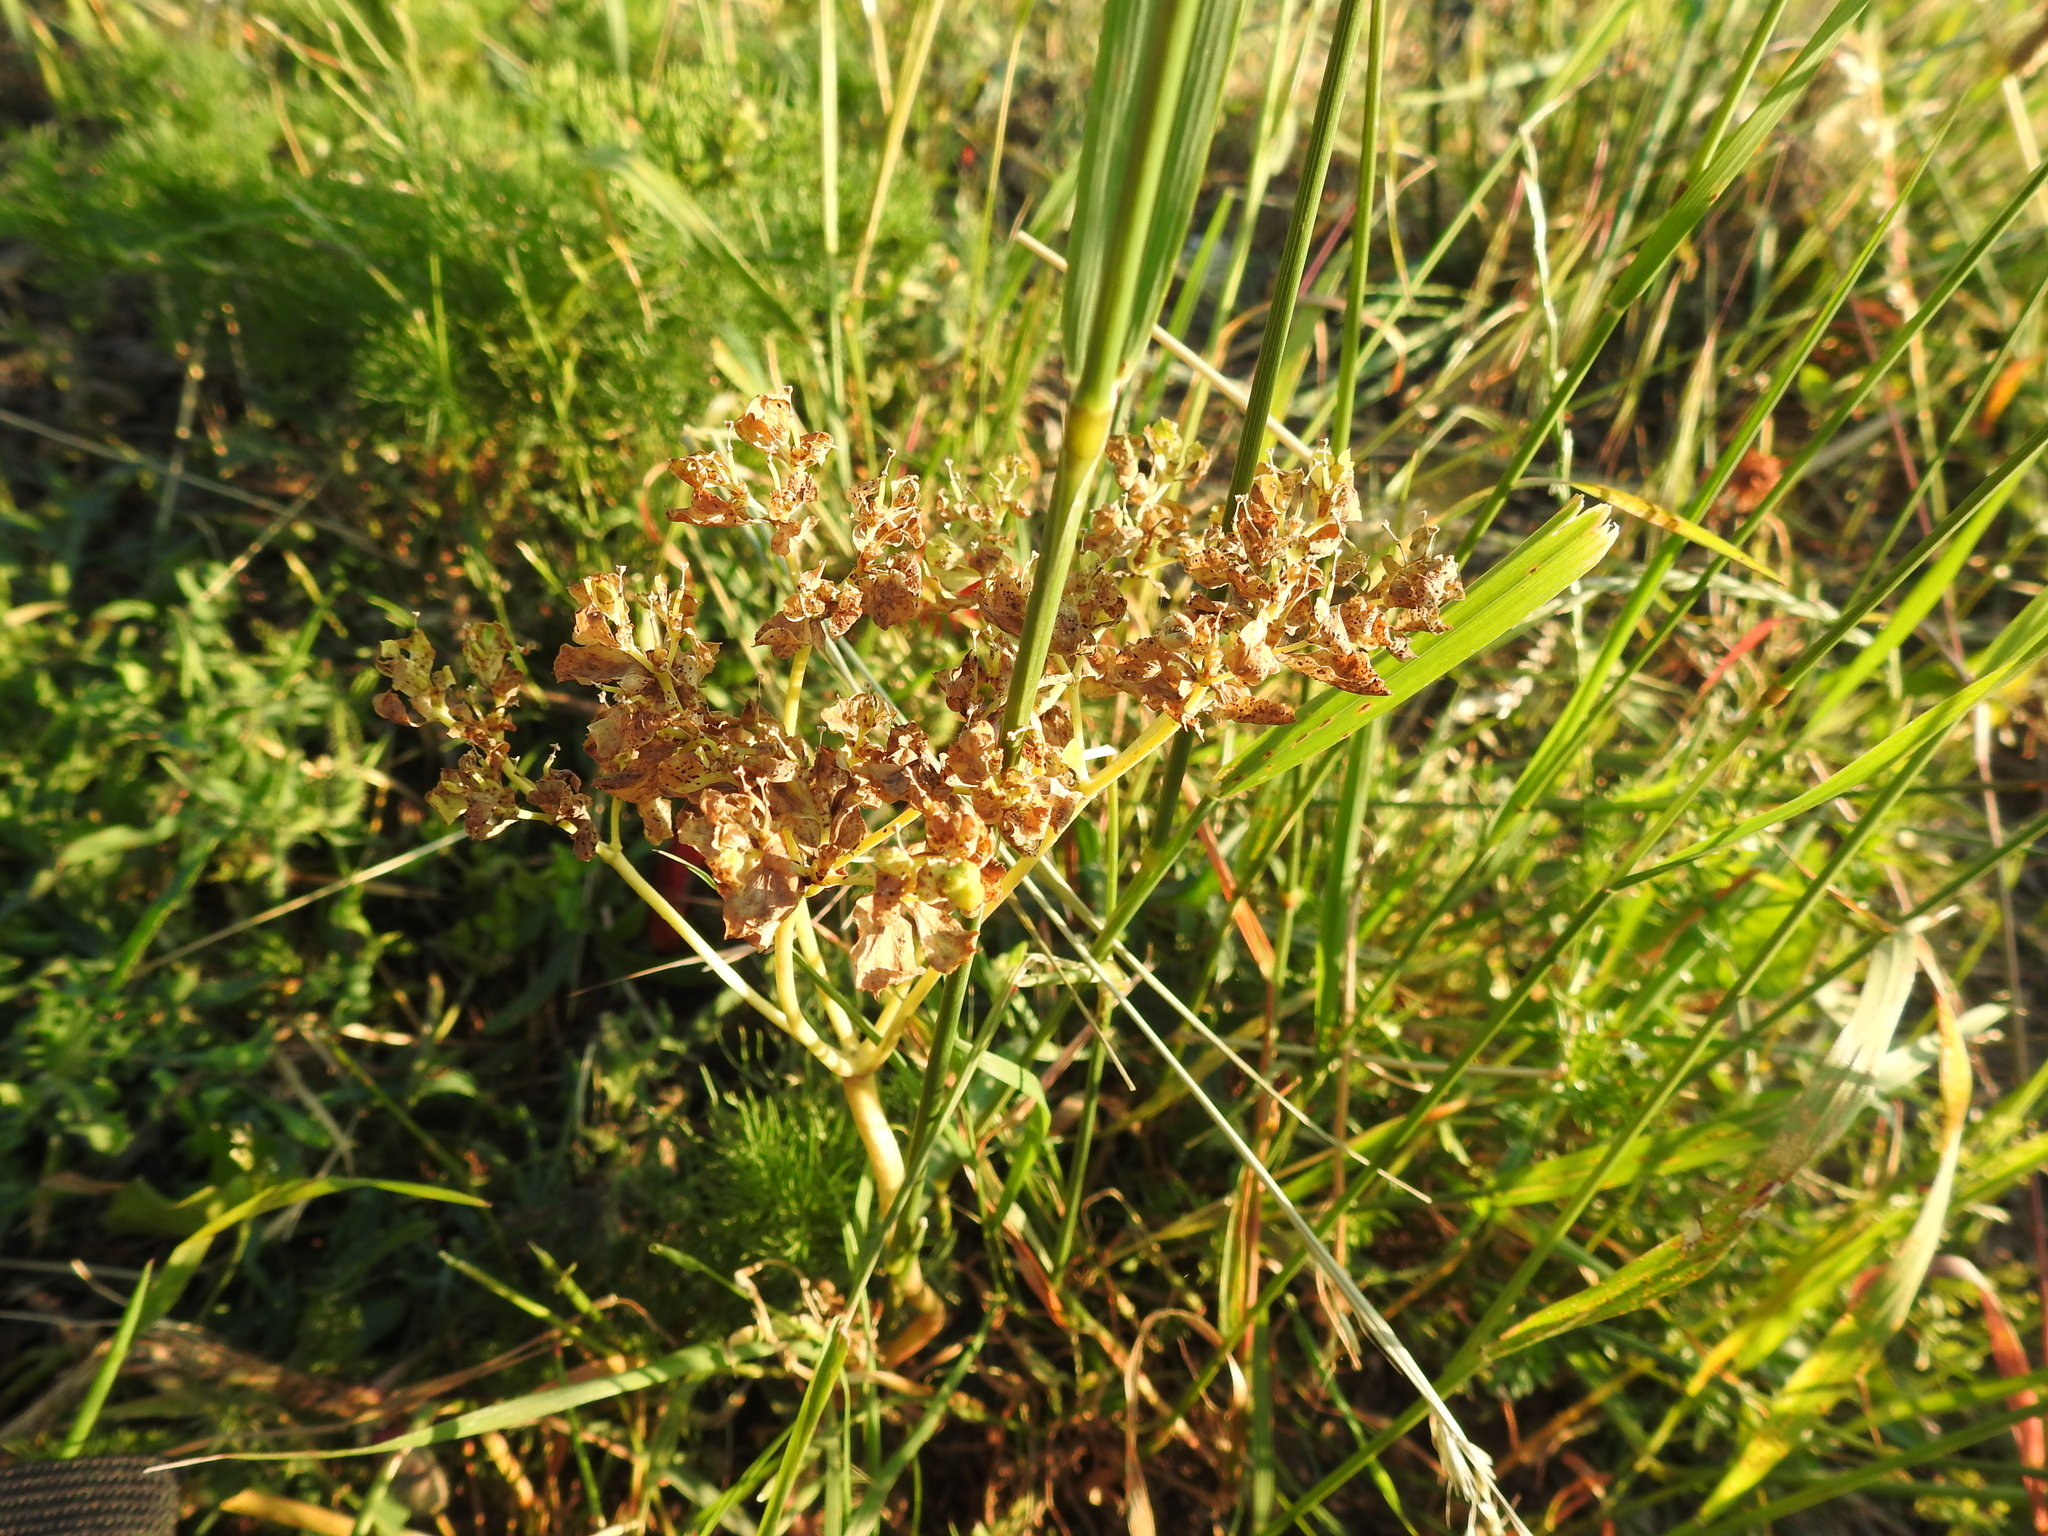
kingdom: Plantae
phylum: Tracheophyta
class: Magnoliopsida
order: Malpighiales
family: Euphorbiaceae
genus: Euphorbia
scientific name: Euphorbia cyparissias
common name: Cypress spurge
